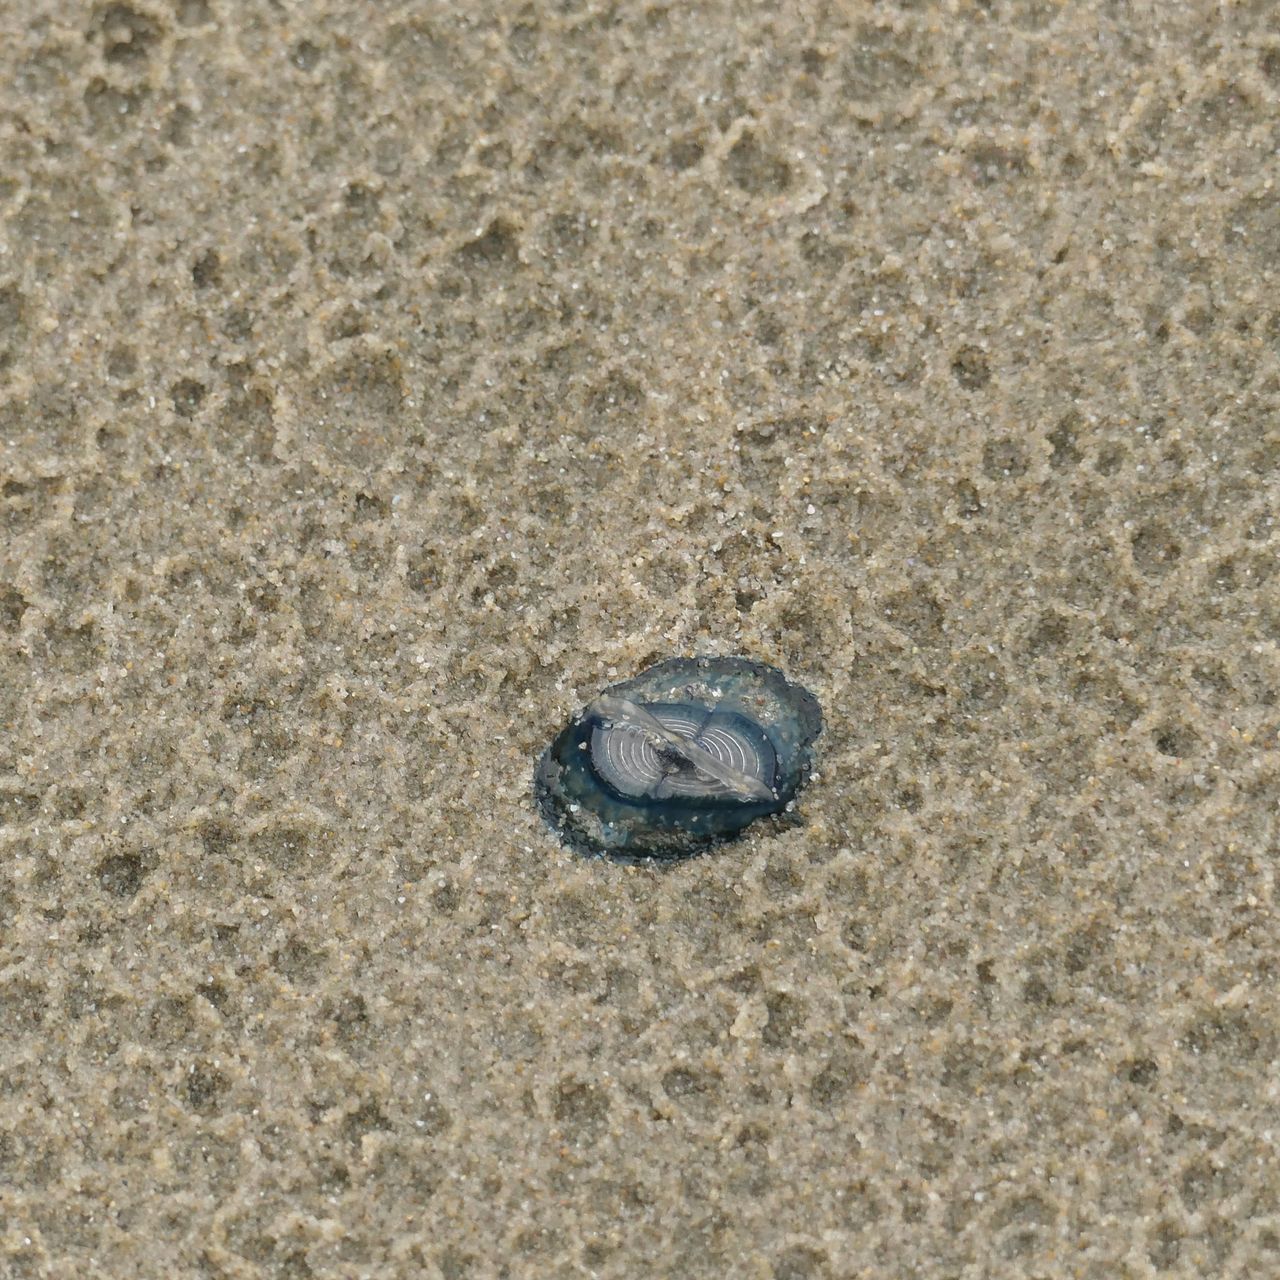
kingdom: Animalia
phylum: Cnidaria
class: Hydrozoa
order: Anthoathecata
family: Porpitidae
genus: Velella
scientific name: Velella velella
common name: By-the-wind-sailor
